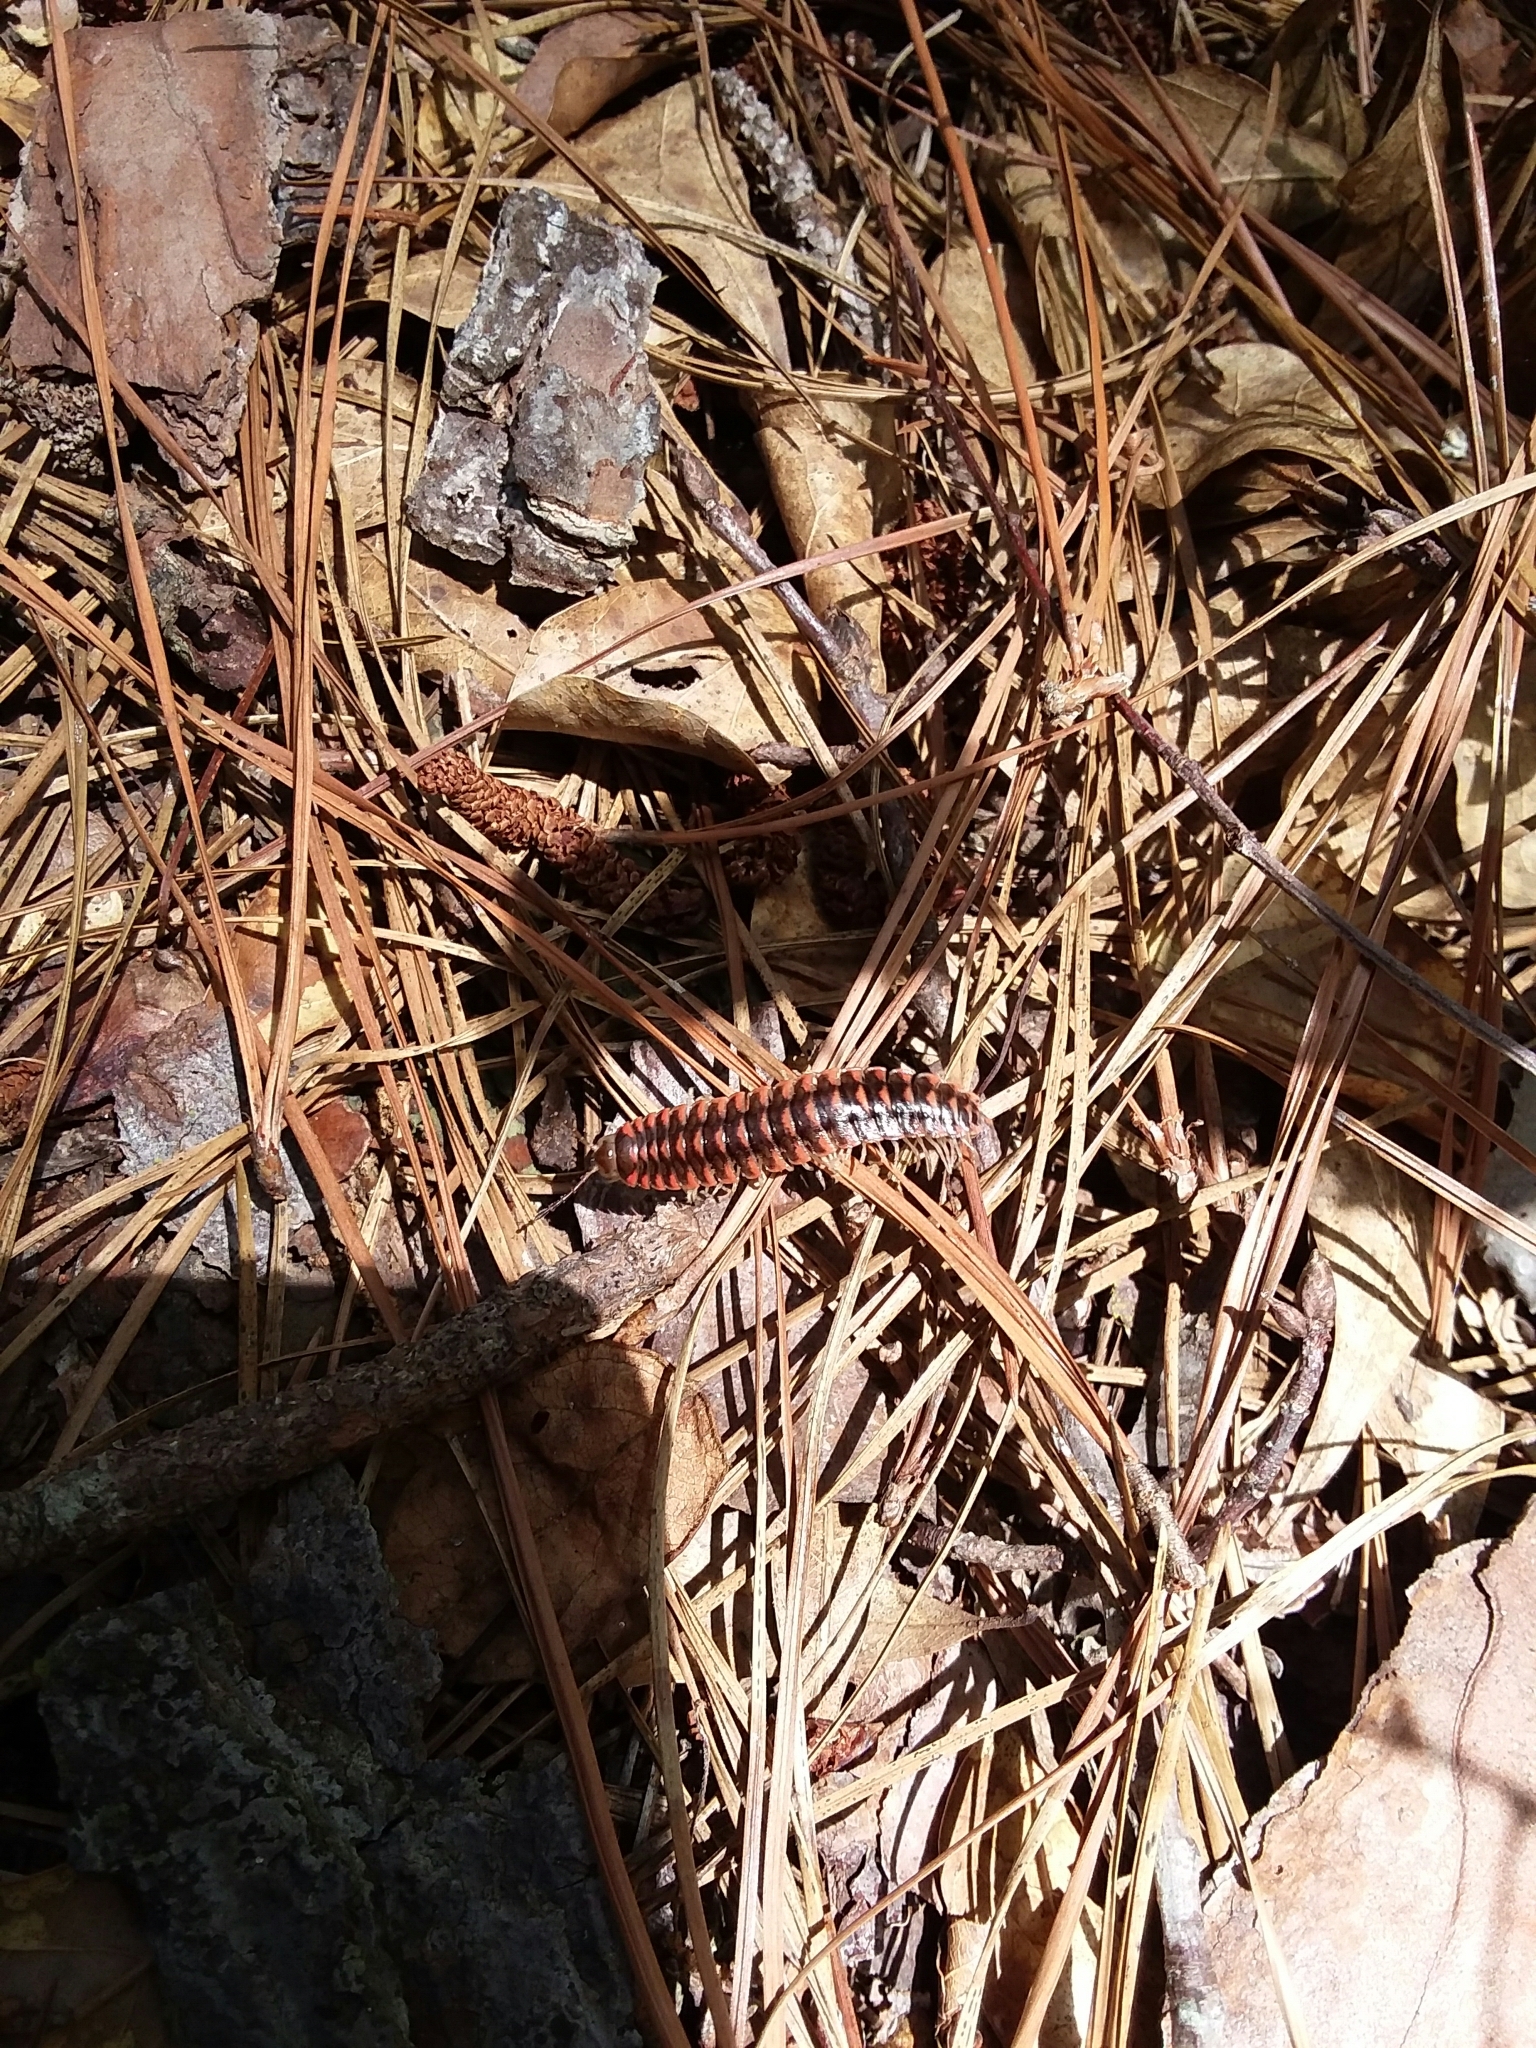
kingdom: Animalia
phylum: Arthropoda
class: Diplopoda
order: Polydesmida
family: Xystodesmidae
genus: Cherokia
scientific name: Cherokia georgiana
